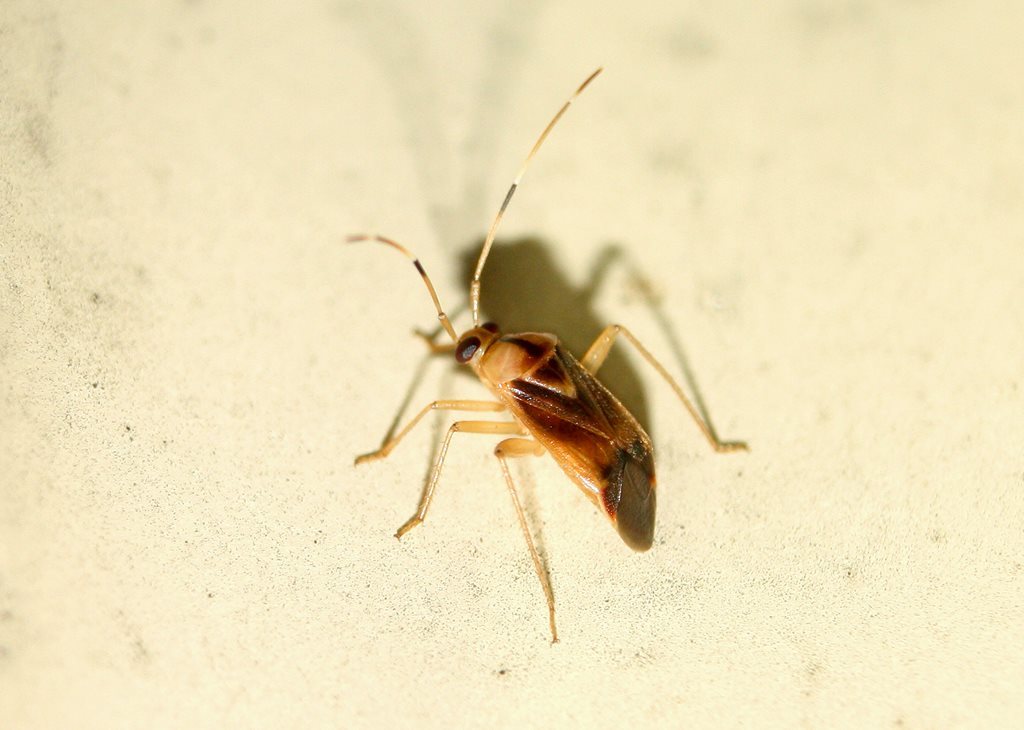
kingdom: Animalia
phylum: Arthropoda
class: Insecta
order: Hemiptera
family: Miridae
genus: Poppiocapsidea
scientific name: Poppiocapsidea biseratense
